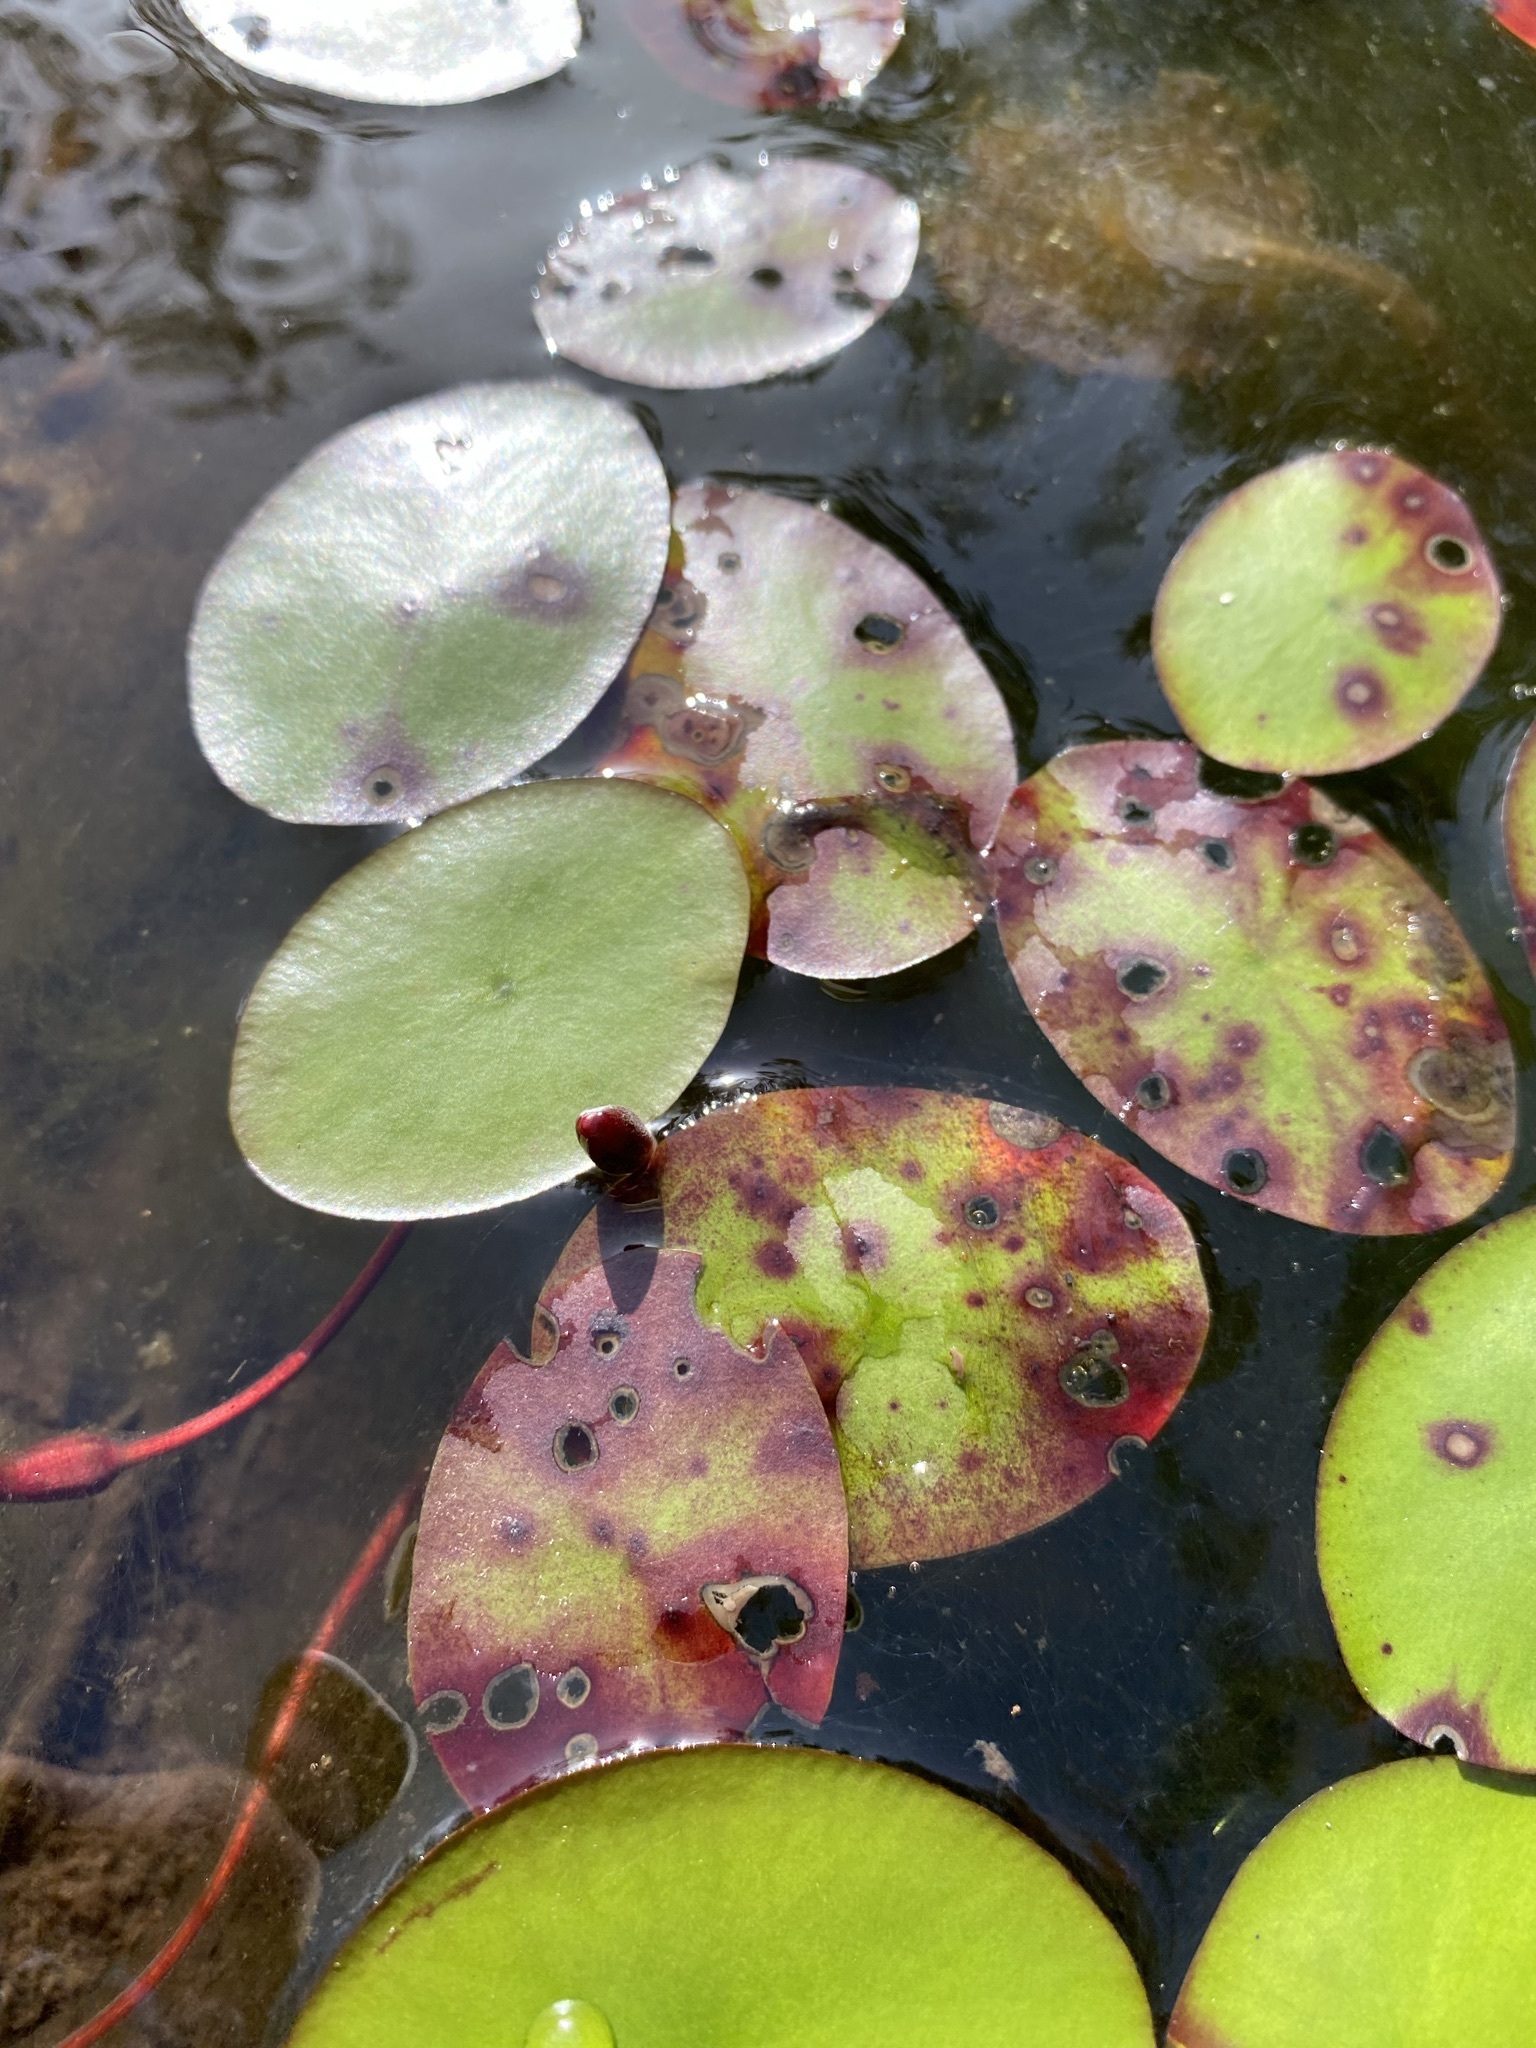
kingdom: Plantae
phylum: Tracheophyta
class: Magnoliopsida
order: Nymphaeales
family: Cabombaceae
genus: Brasenia
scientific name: Brasenia schreberi
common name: Water-shield
